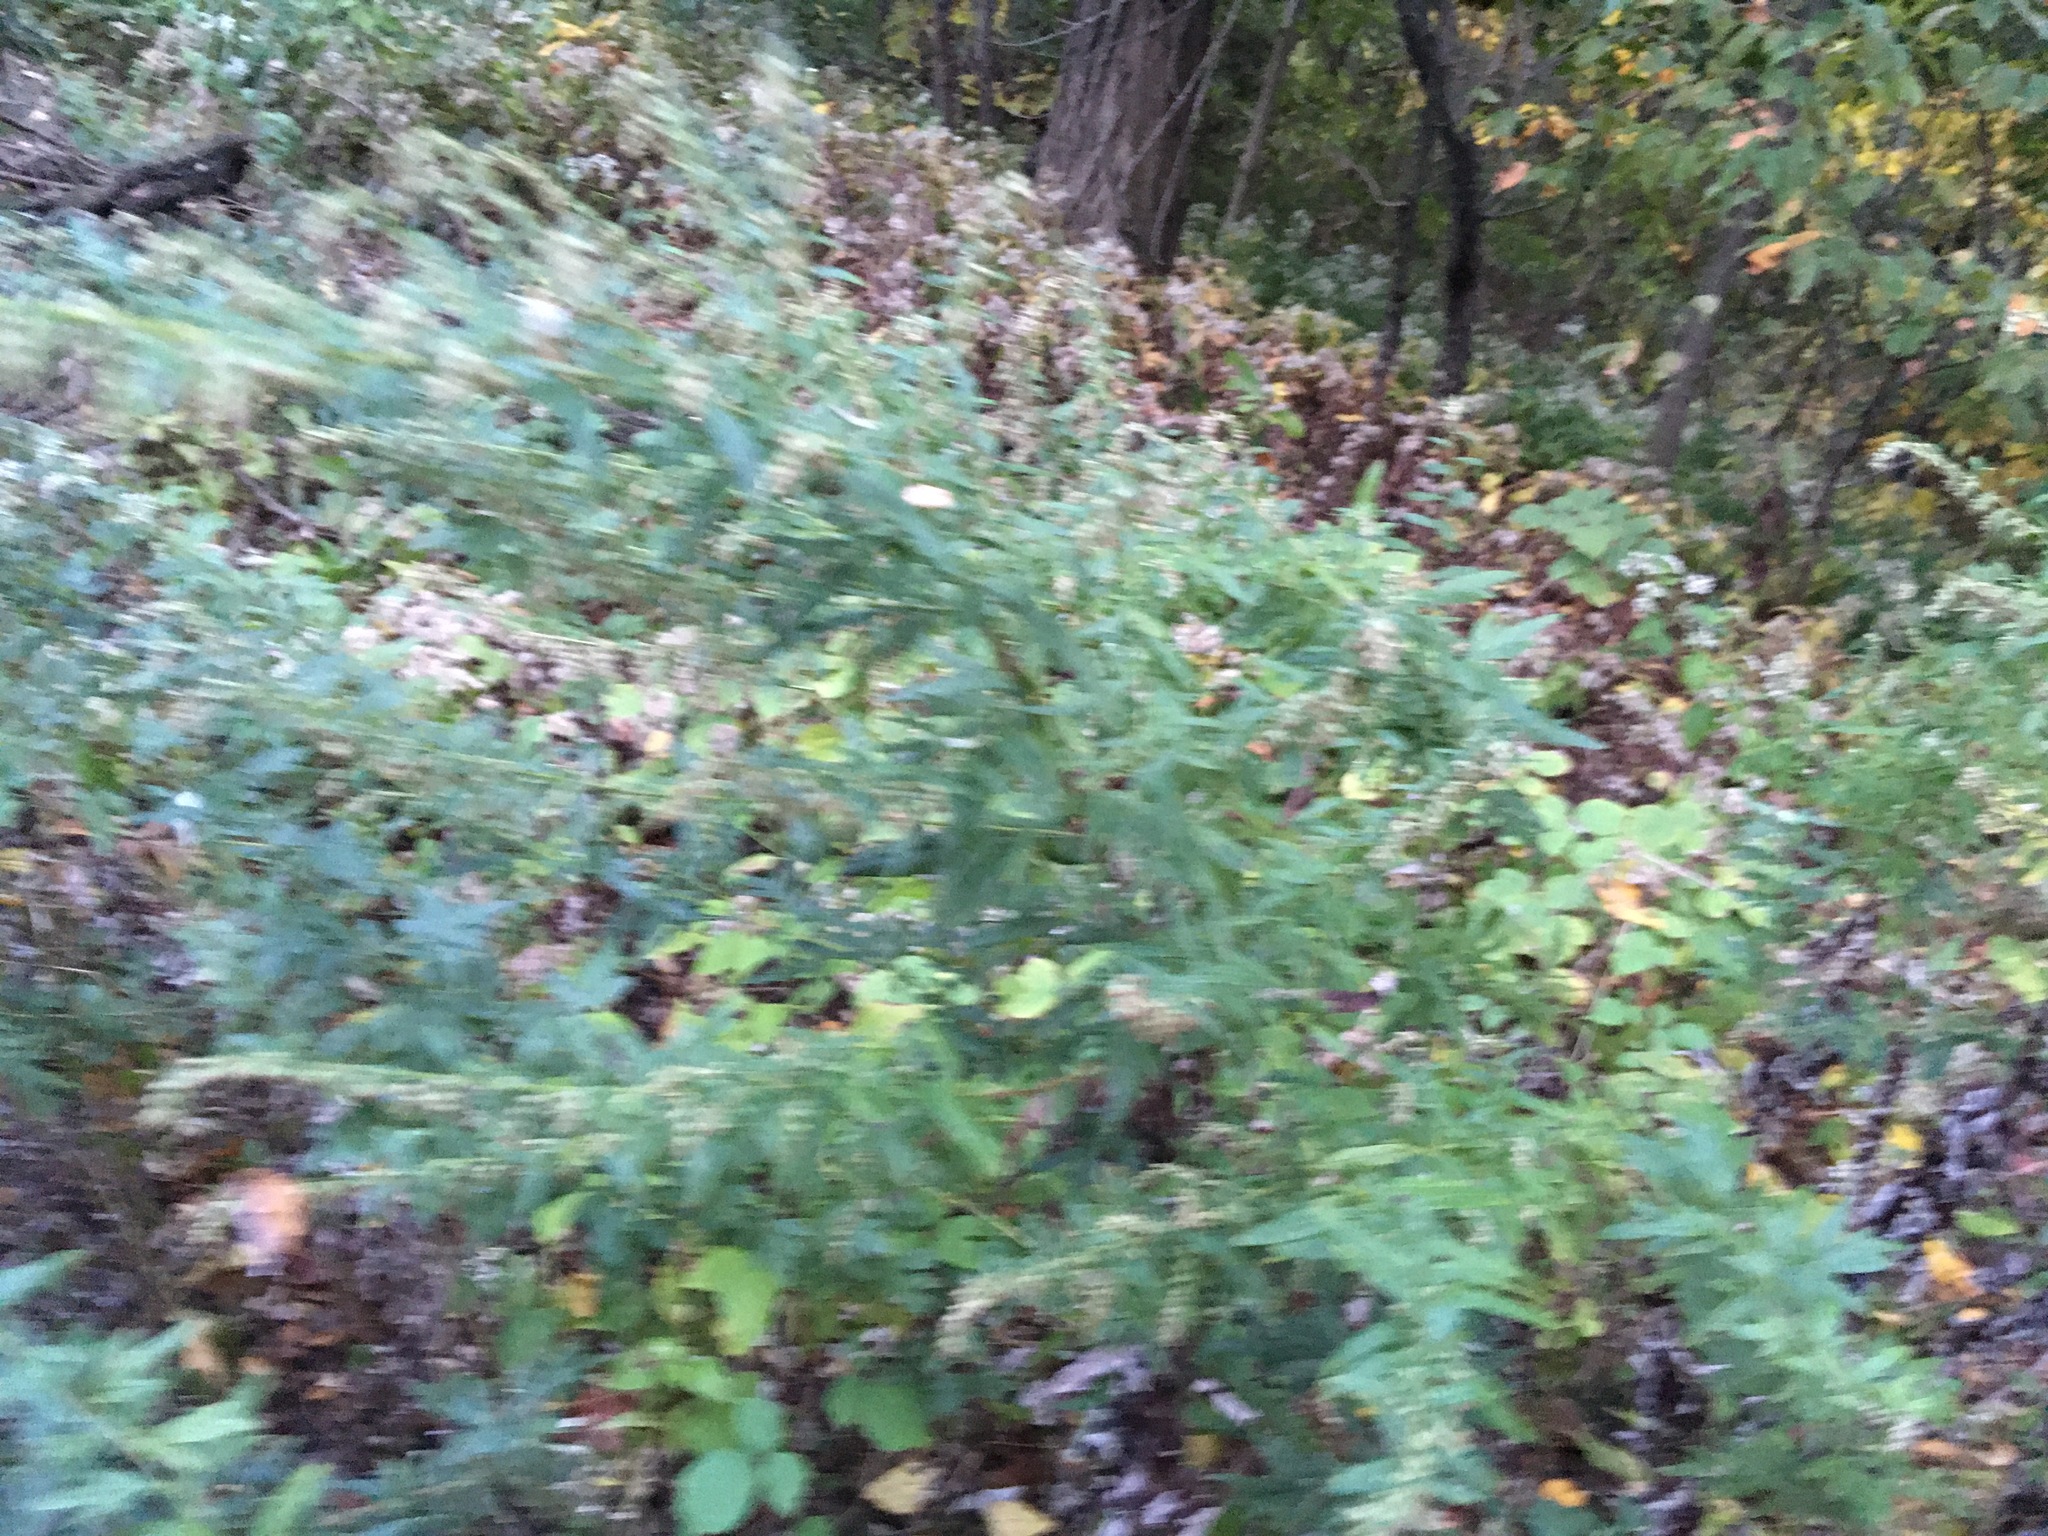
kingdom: Plantae
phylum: Tracheophyta
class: Magnoliopsida
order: Asterales
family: Asteraceae
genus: Artemisia
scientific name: Artemisia vulgaris
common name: Mugwort
